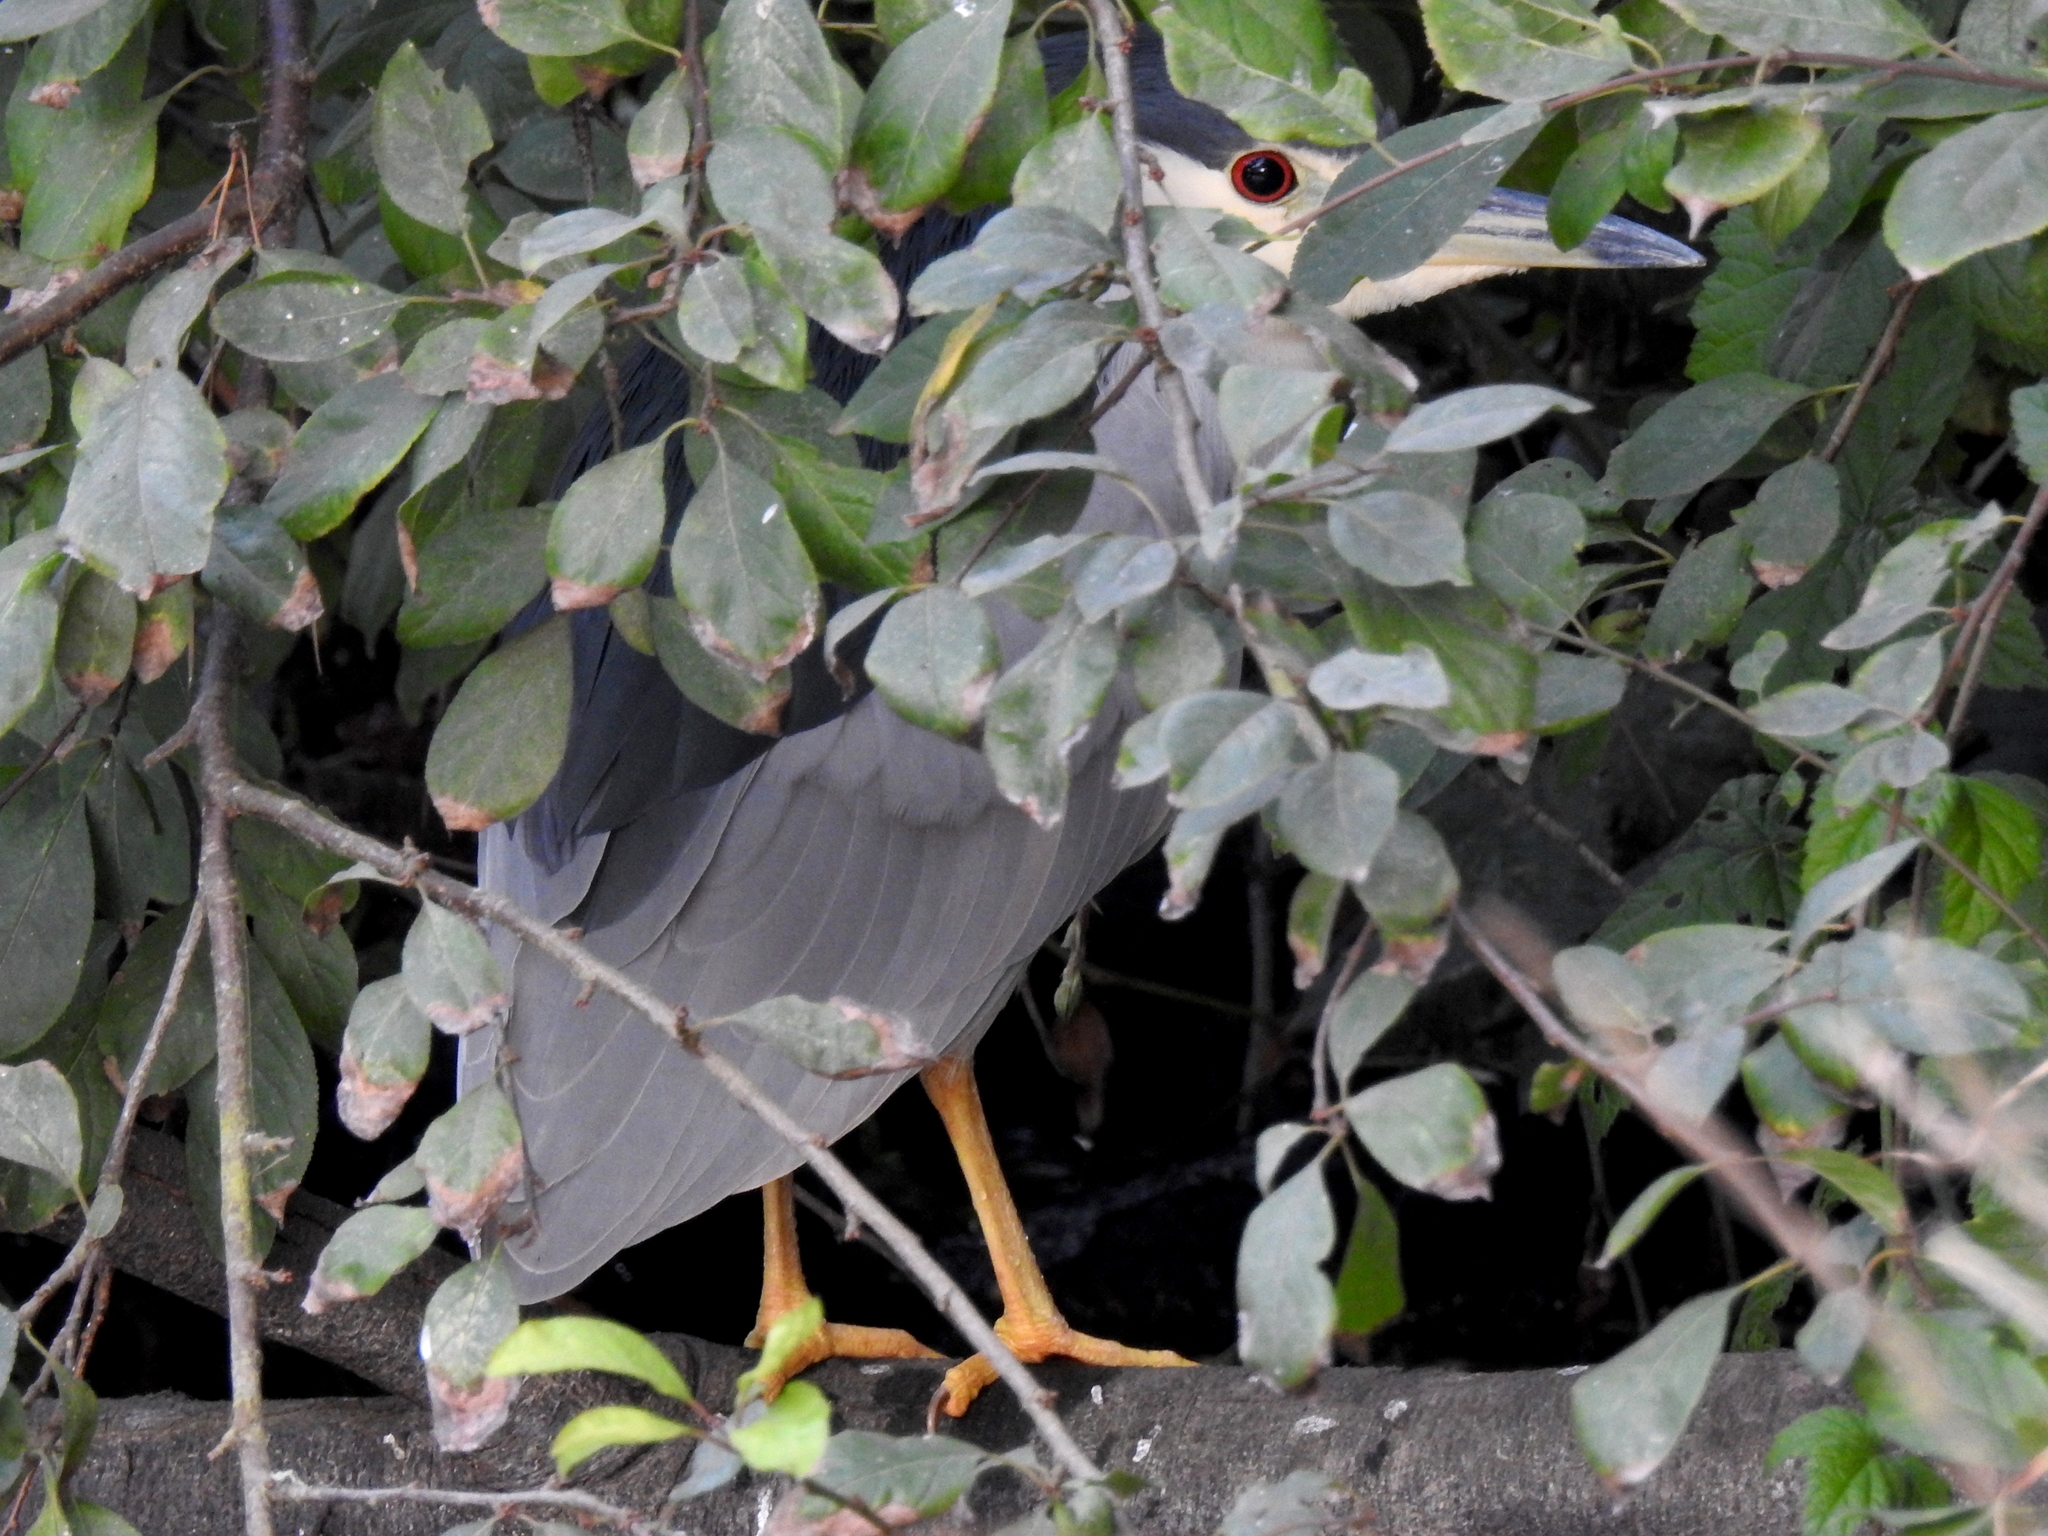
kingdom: Animalia
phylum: Chordata
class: Aves
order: Pelecaniformes
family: Ardeidae
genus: Nycticorax
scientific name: Nycticorax nycticorax
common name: Black-crowned night heron
